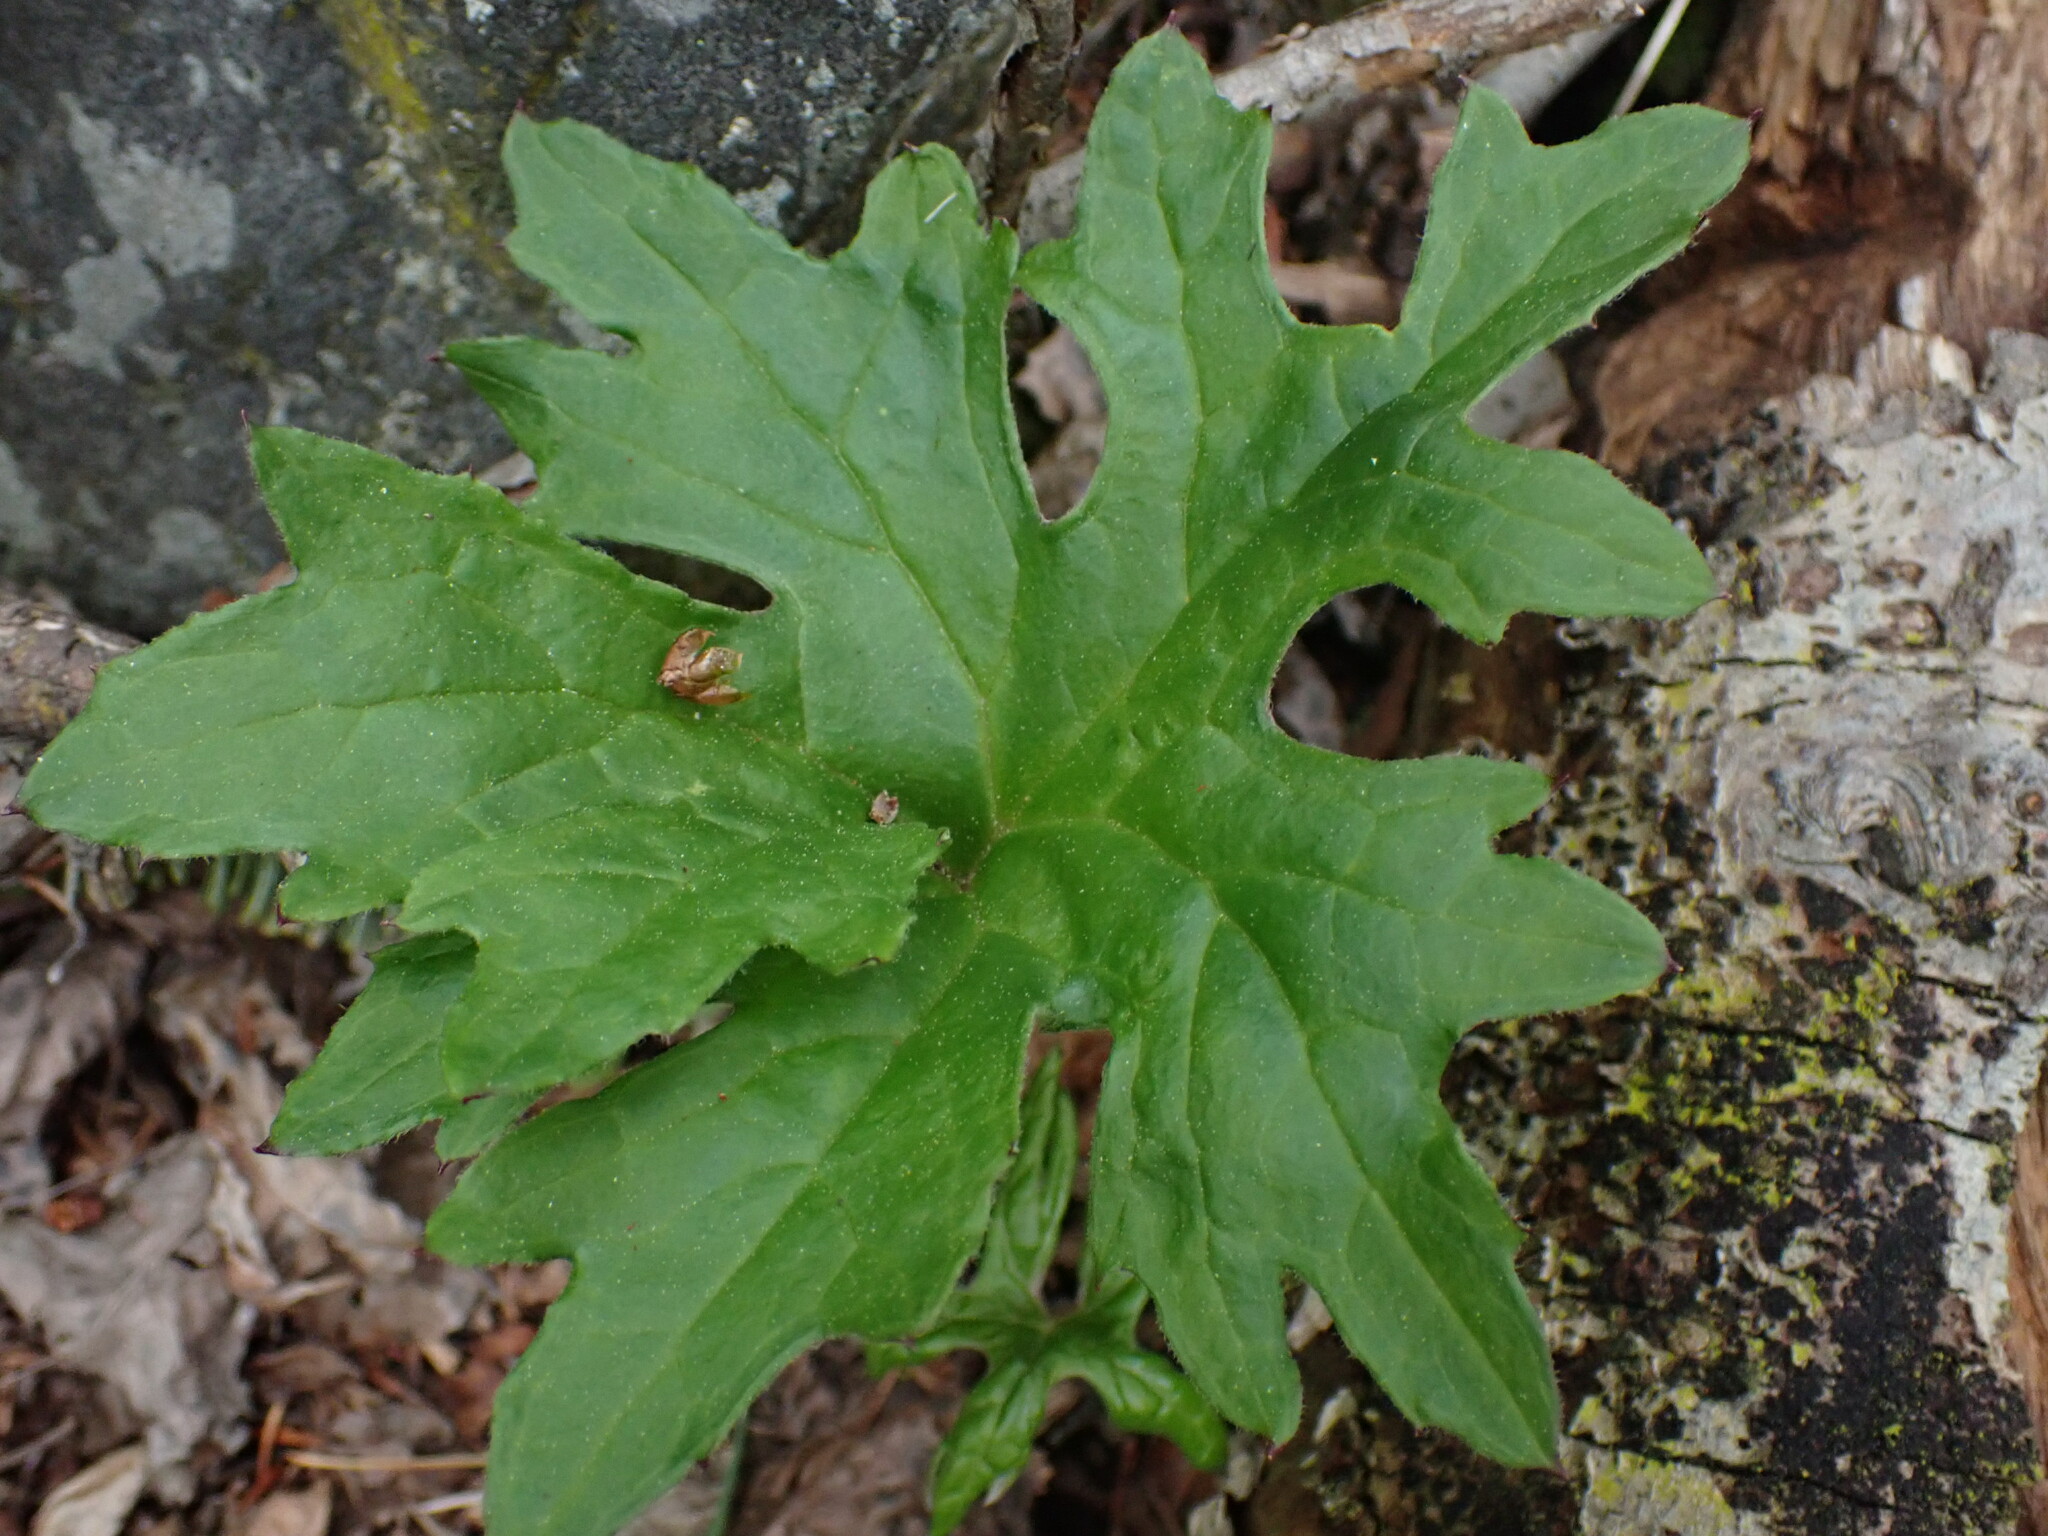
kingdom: Plantae
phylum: Tracheophyta
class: Magnoliopsida
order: Asterales
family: Asteraceae
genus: Petasites
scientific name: Petasites frigidus
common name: Arctic butterbur
